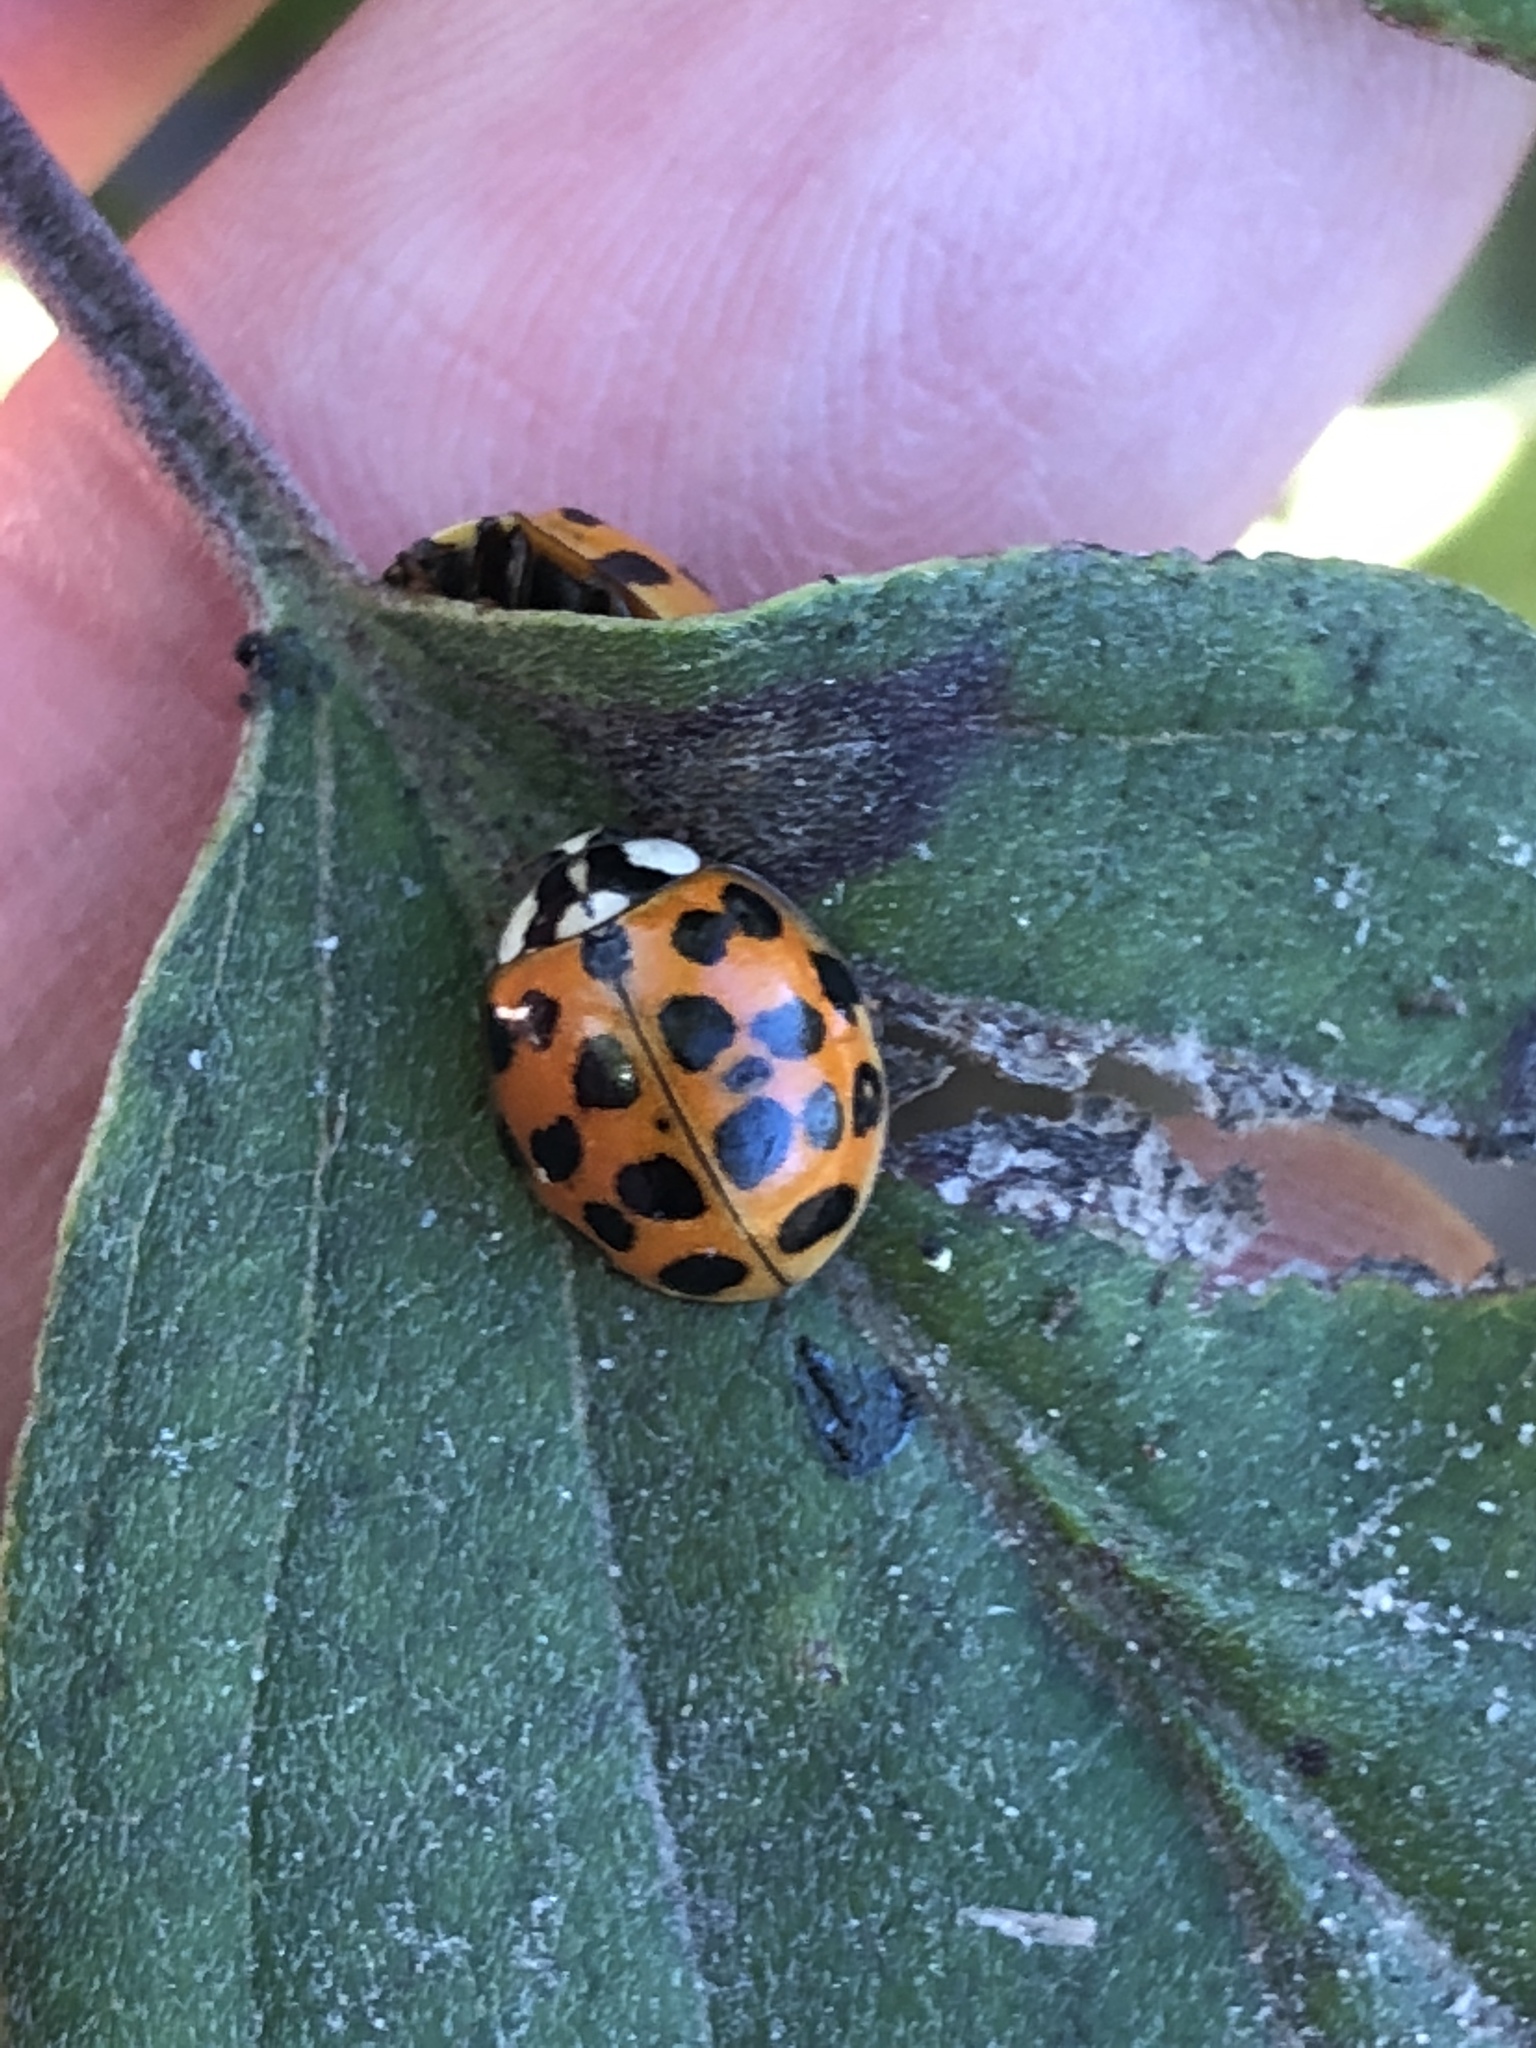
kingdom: Animalia
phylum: Arthropoda
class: Insecta
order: Coleoptera
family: Coccinellidae
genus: Harmonia
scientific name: Harmonia axyridis
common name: Harlequin ladybird
